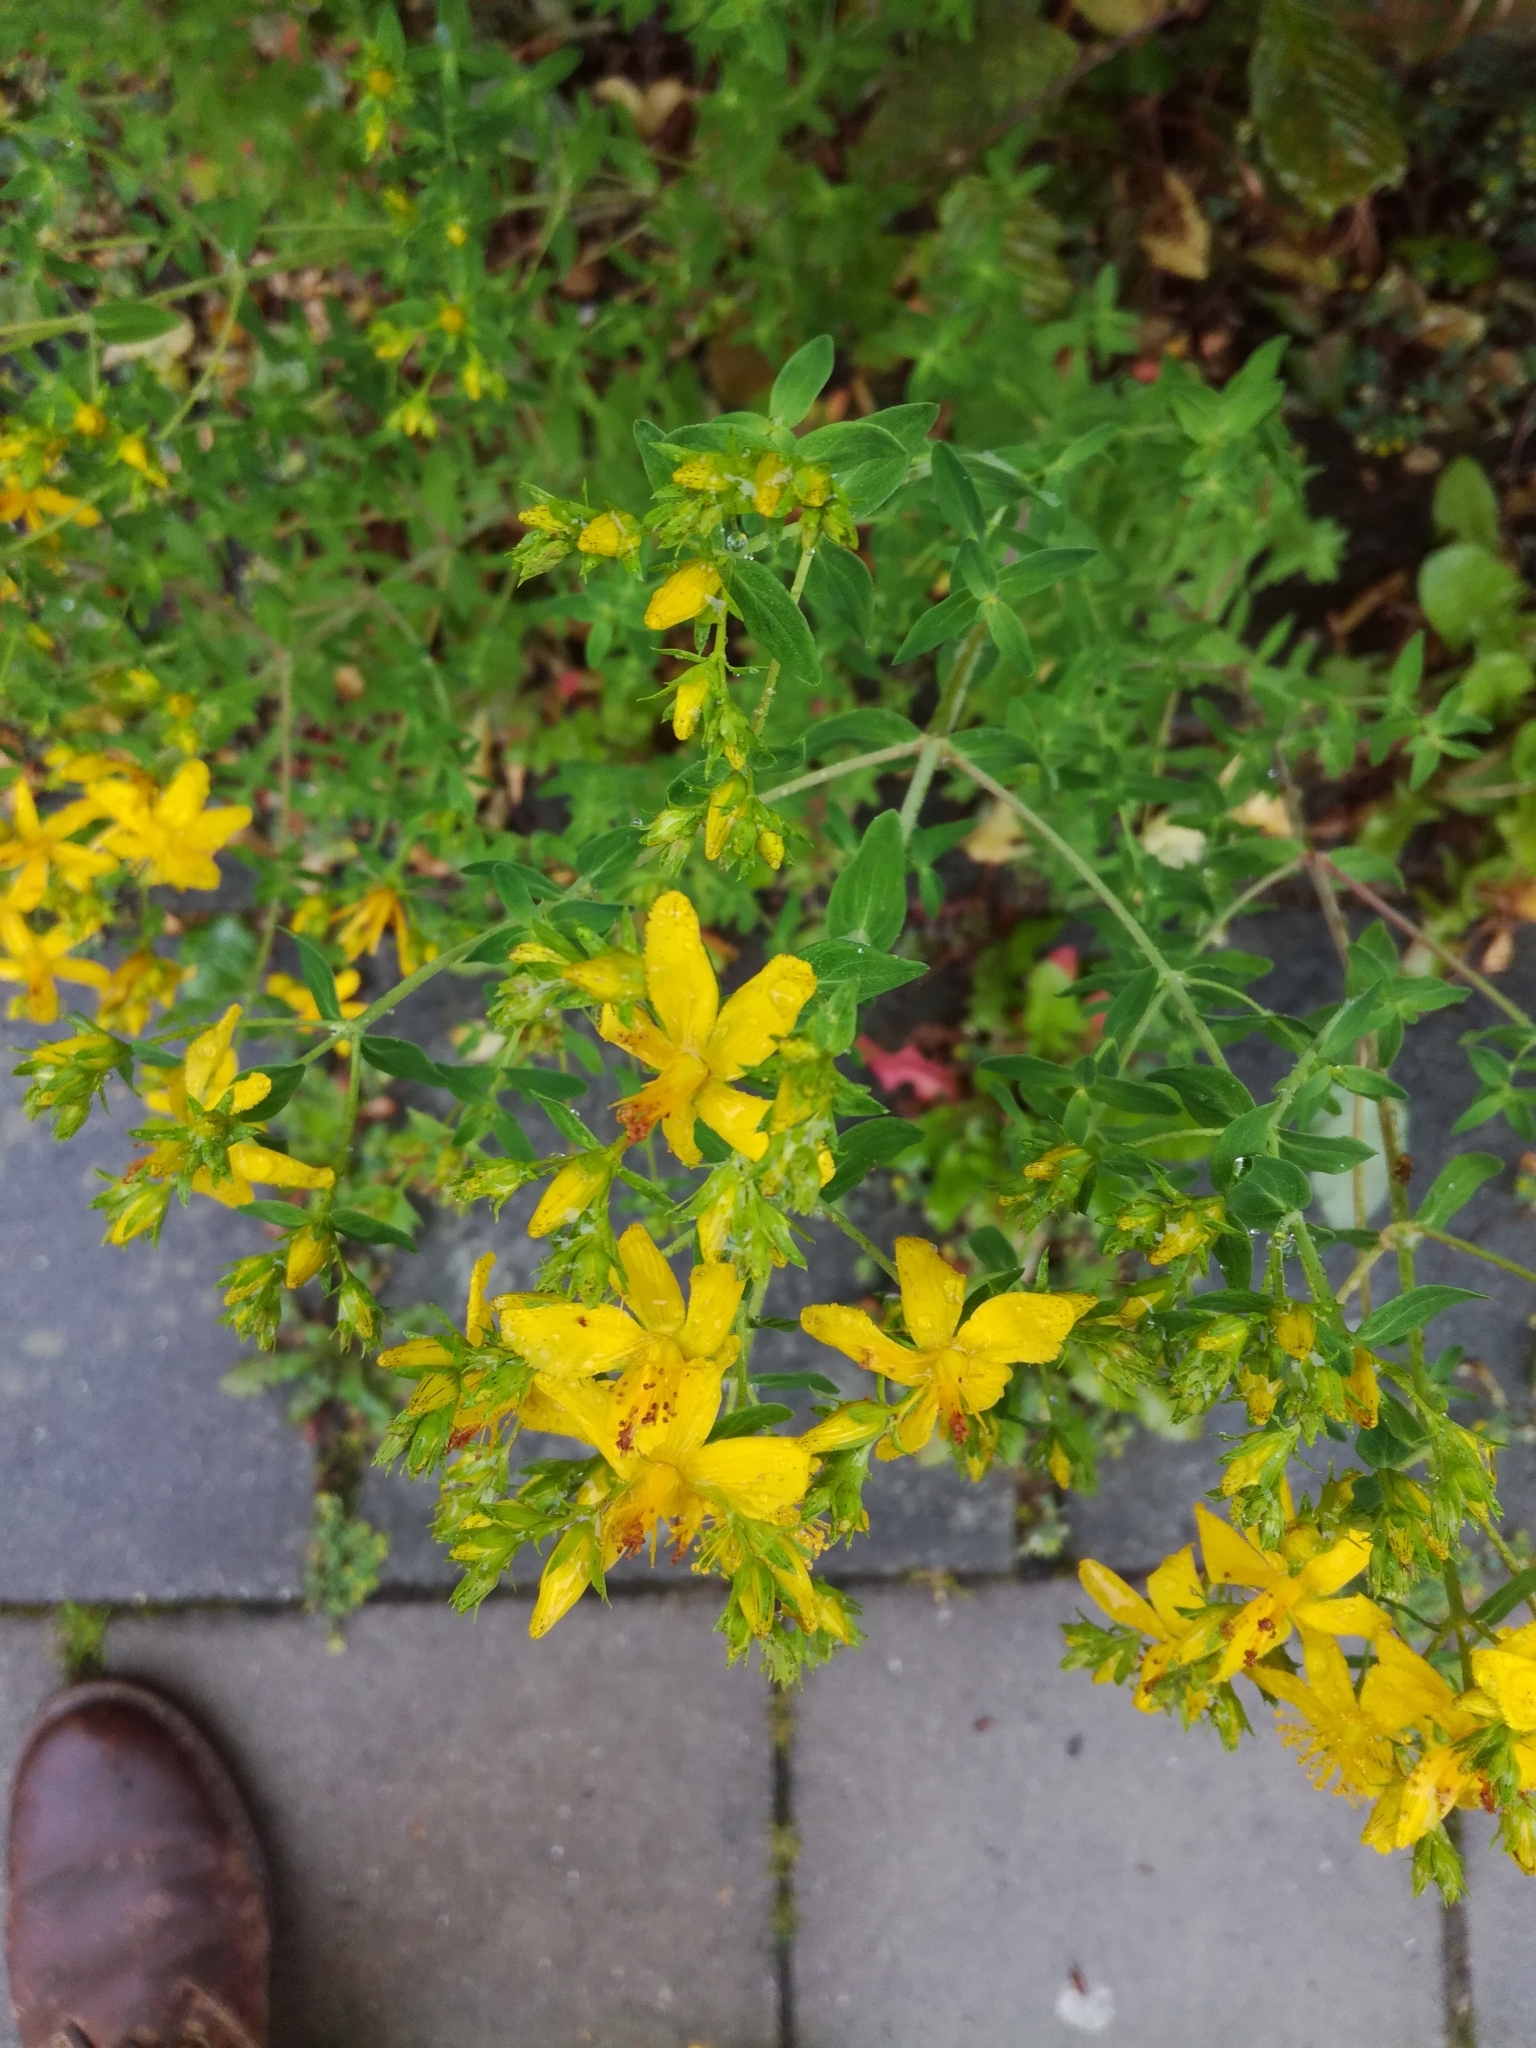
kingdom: Plantae
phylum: Tracheophyta
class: Magnoliopsida
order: Malpighiales
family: Hypericaceae
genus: Hypericum
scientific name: Hypericum perforatum
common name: Common st. johnswort
